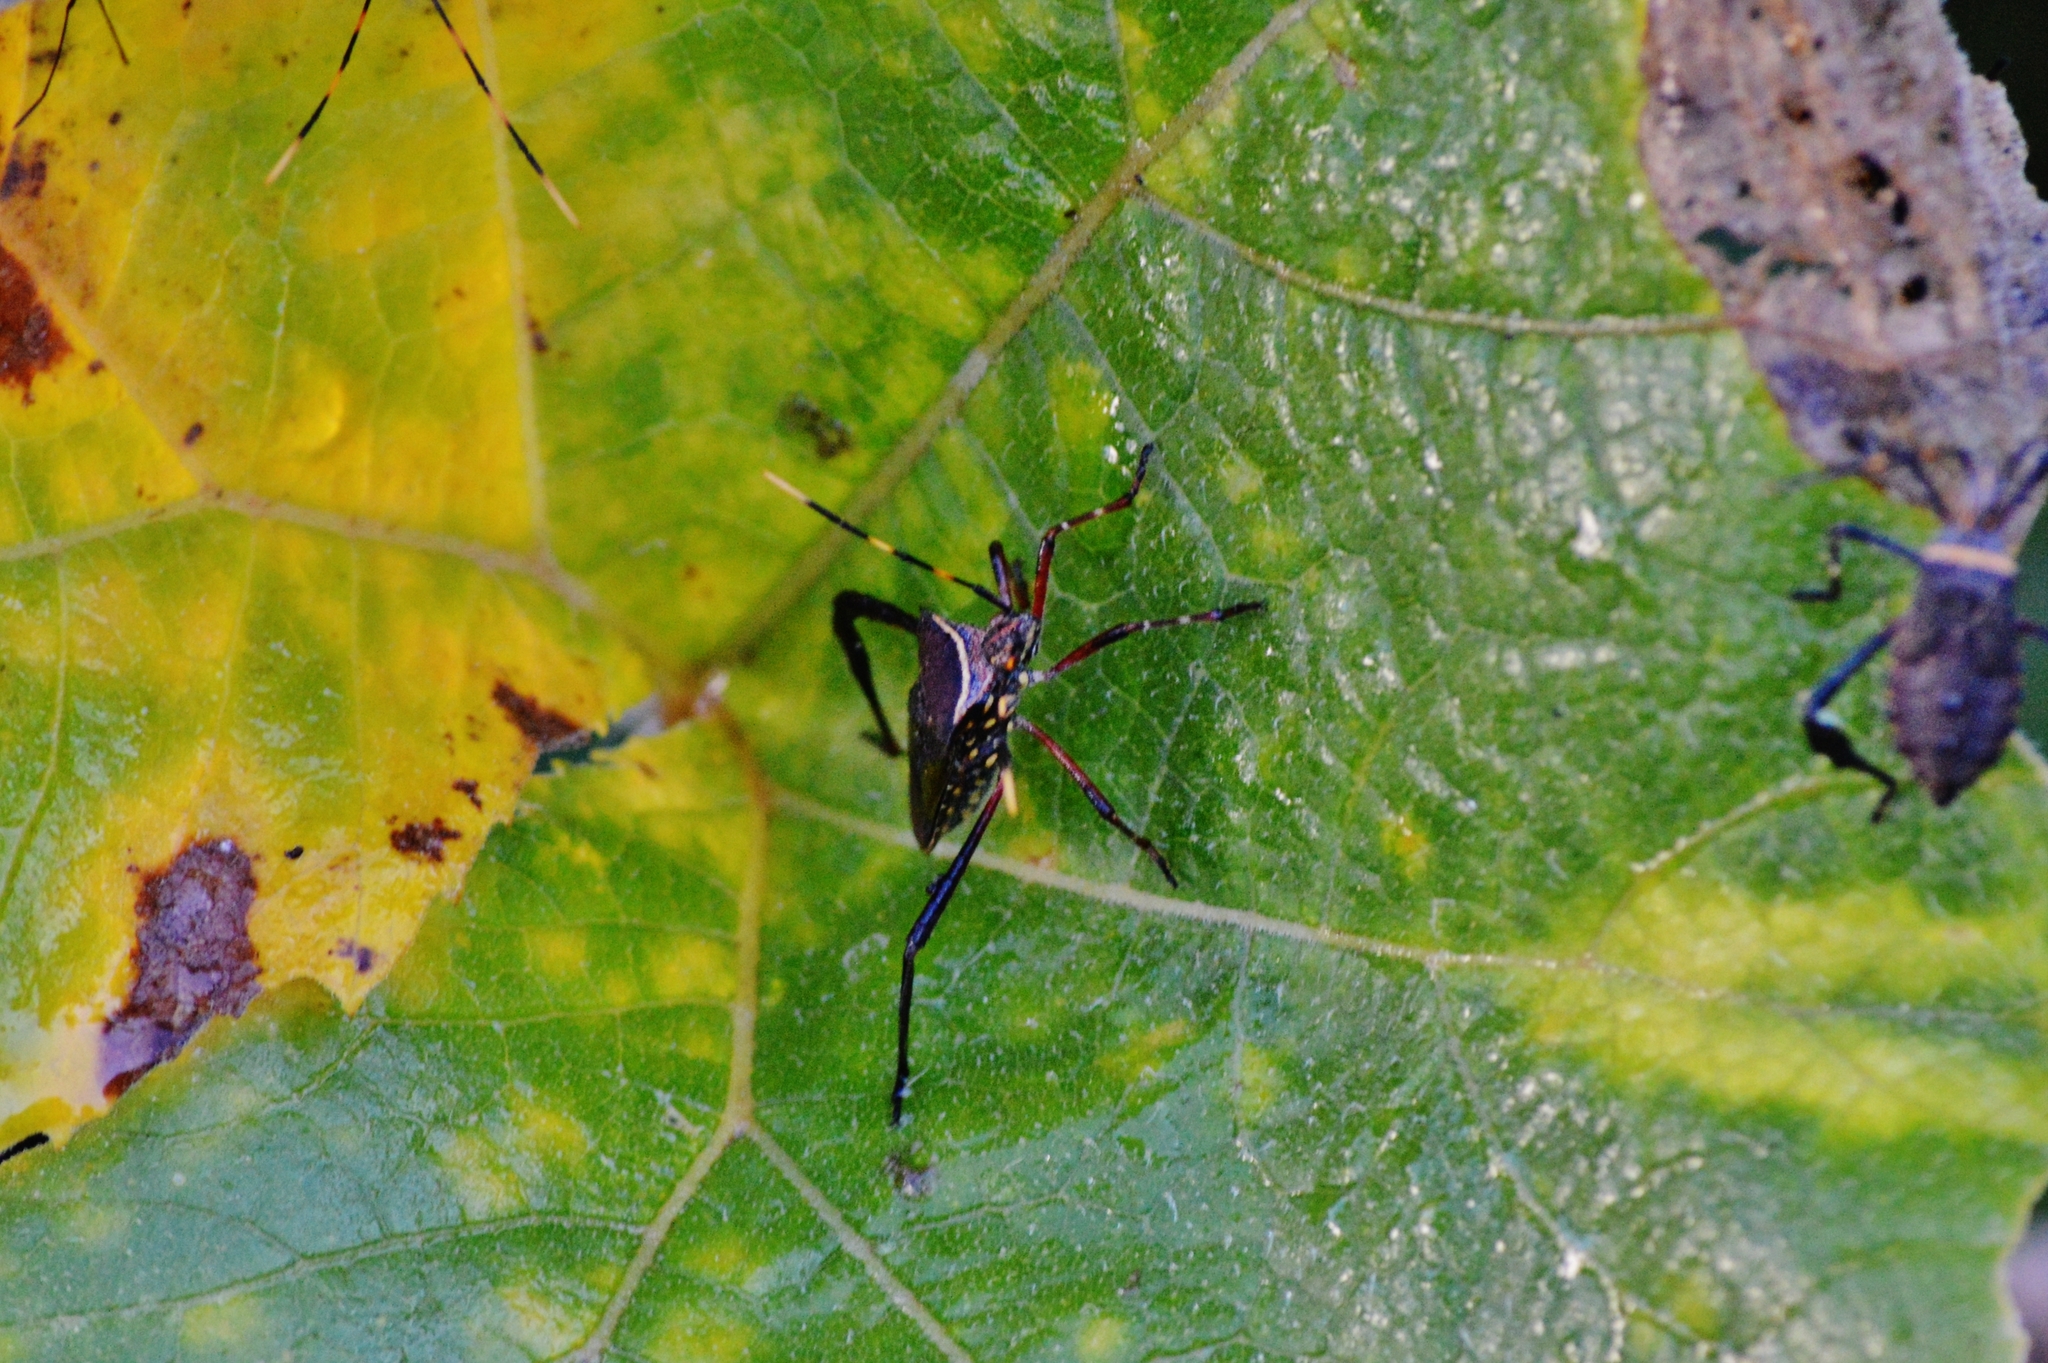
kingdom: Animalia
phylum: Arthropoda
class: Insecta
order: Hemiptera
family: Coreidae
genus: Leptoglossus
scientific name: Leptoglossus gonagra
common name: Citron bug
